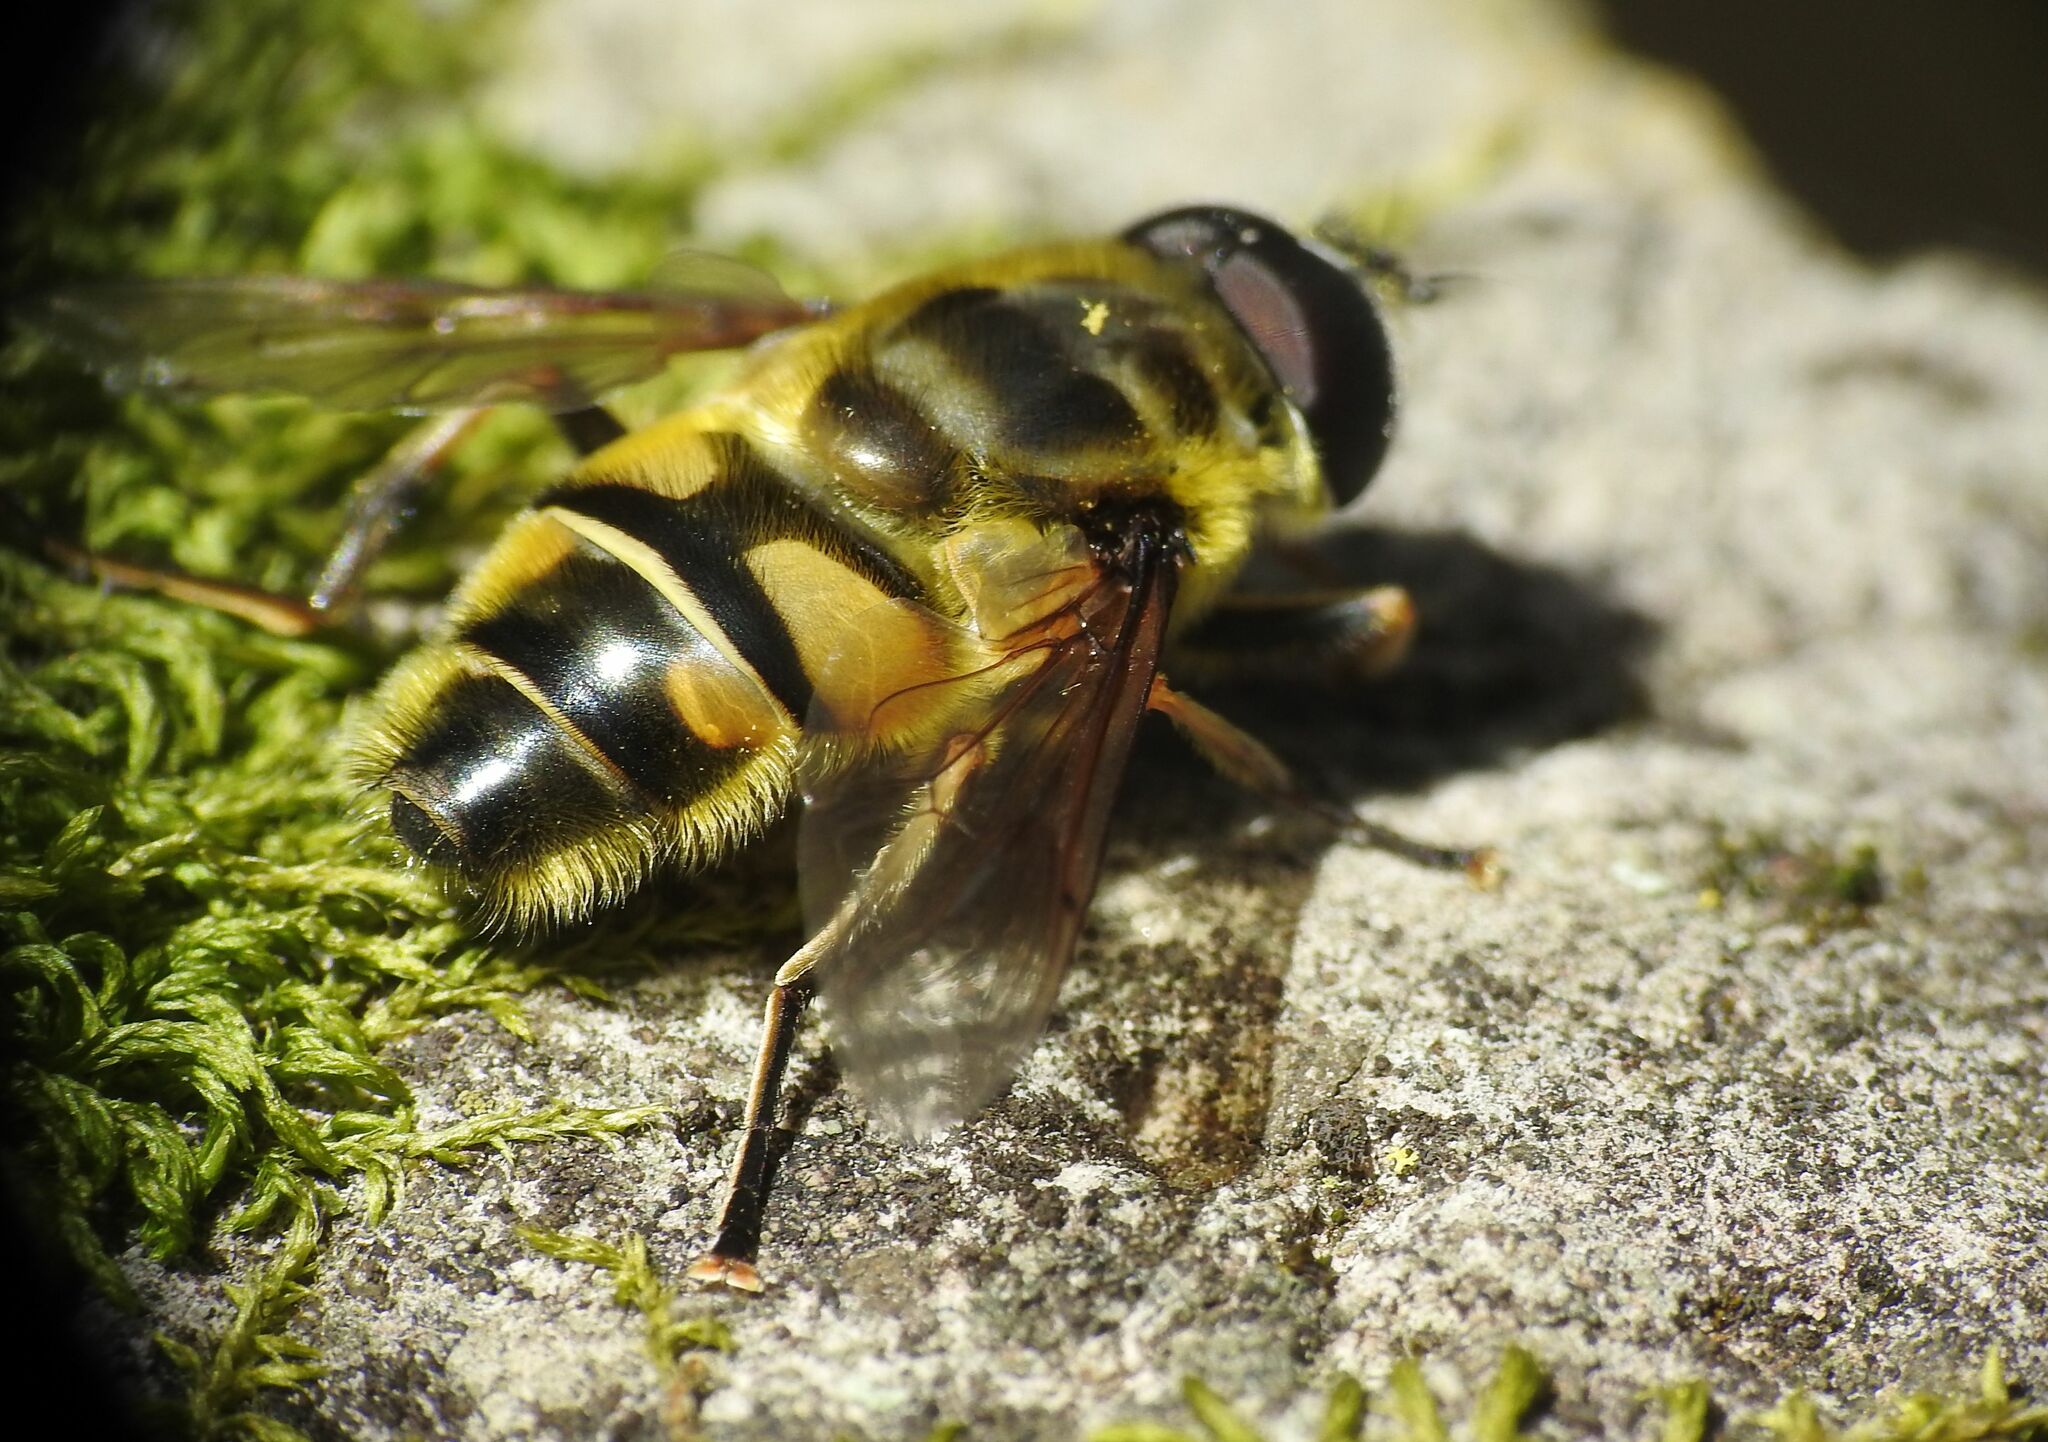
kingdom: Animalia
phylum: Arthropoda
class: Insecta
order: Diptera
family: Syrphidae
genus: Myathropa
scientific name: Myathropa florea
